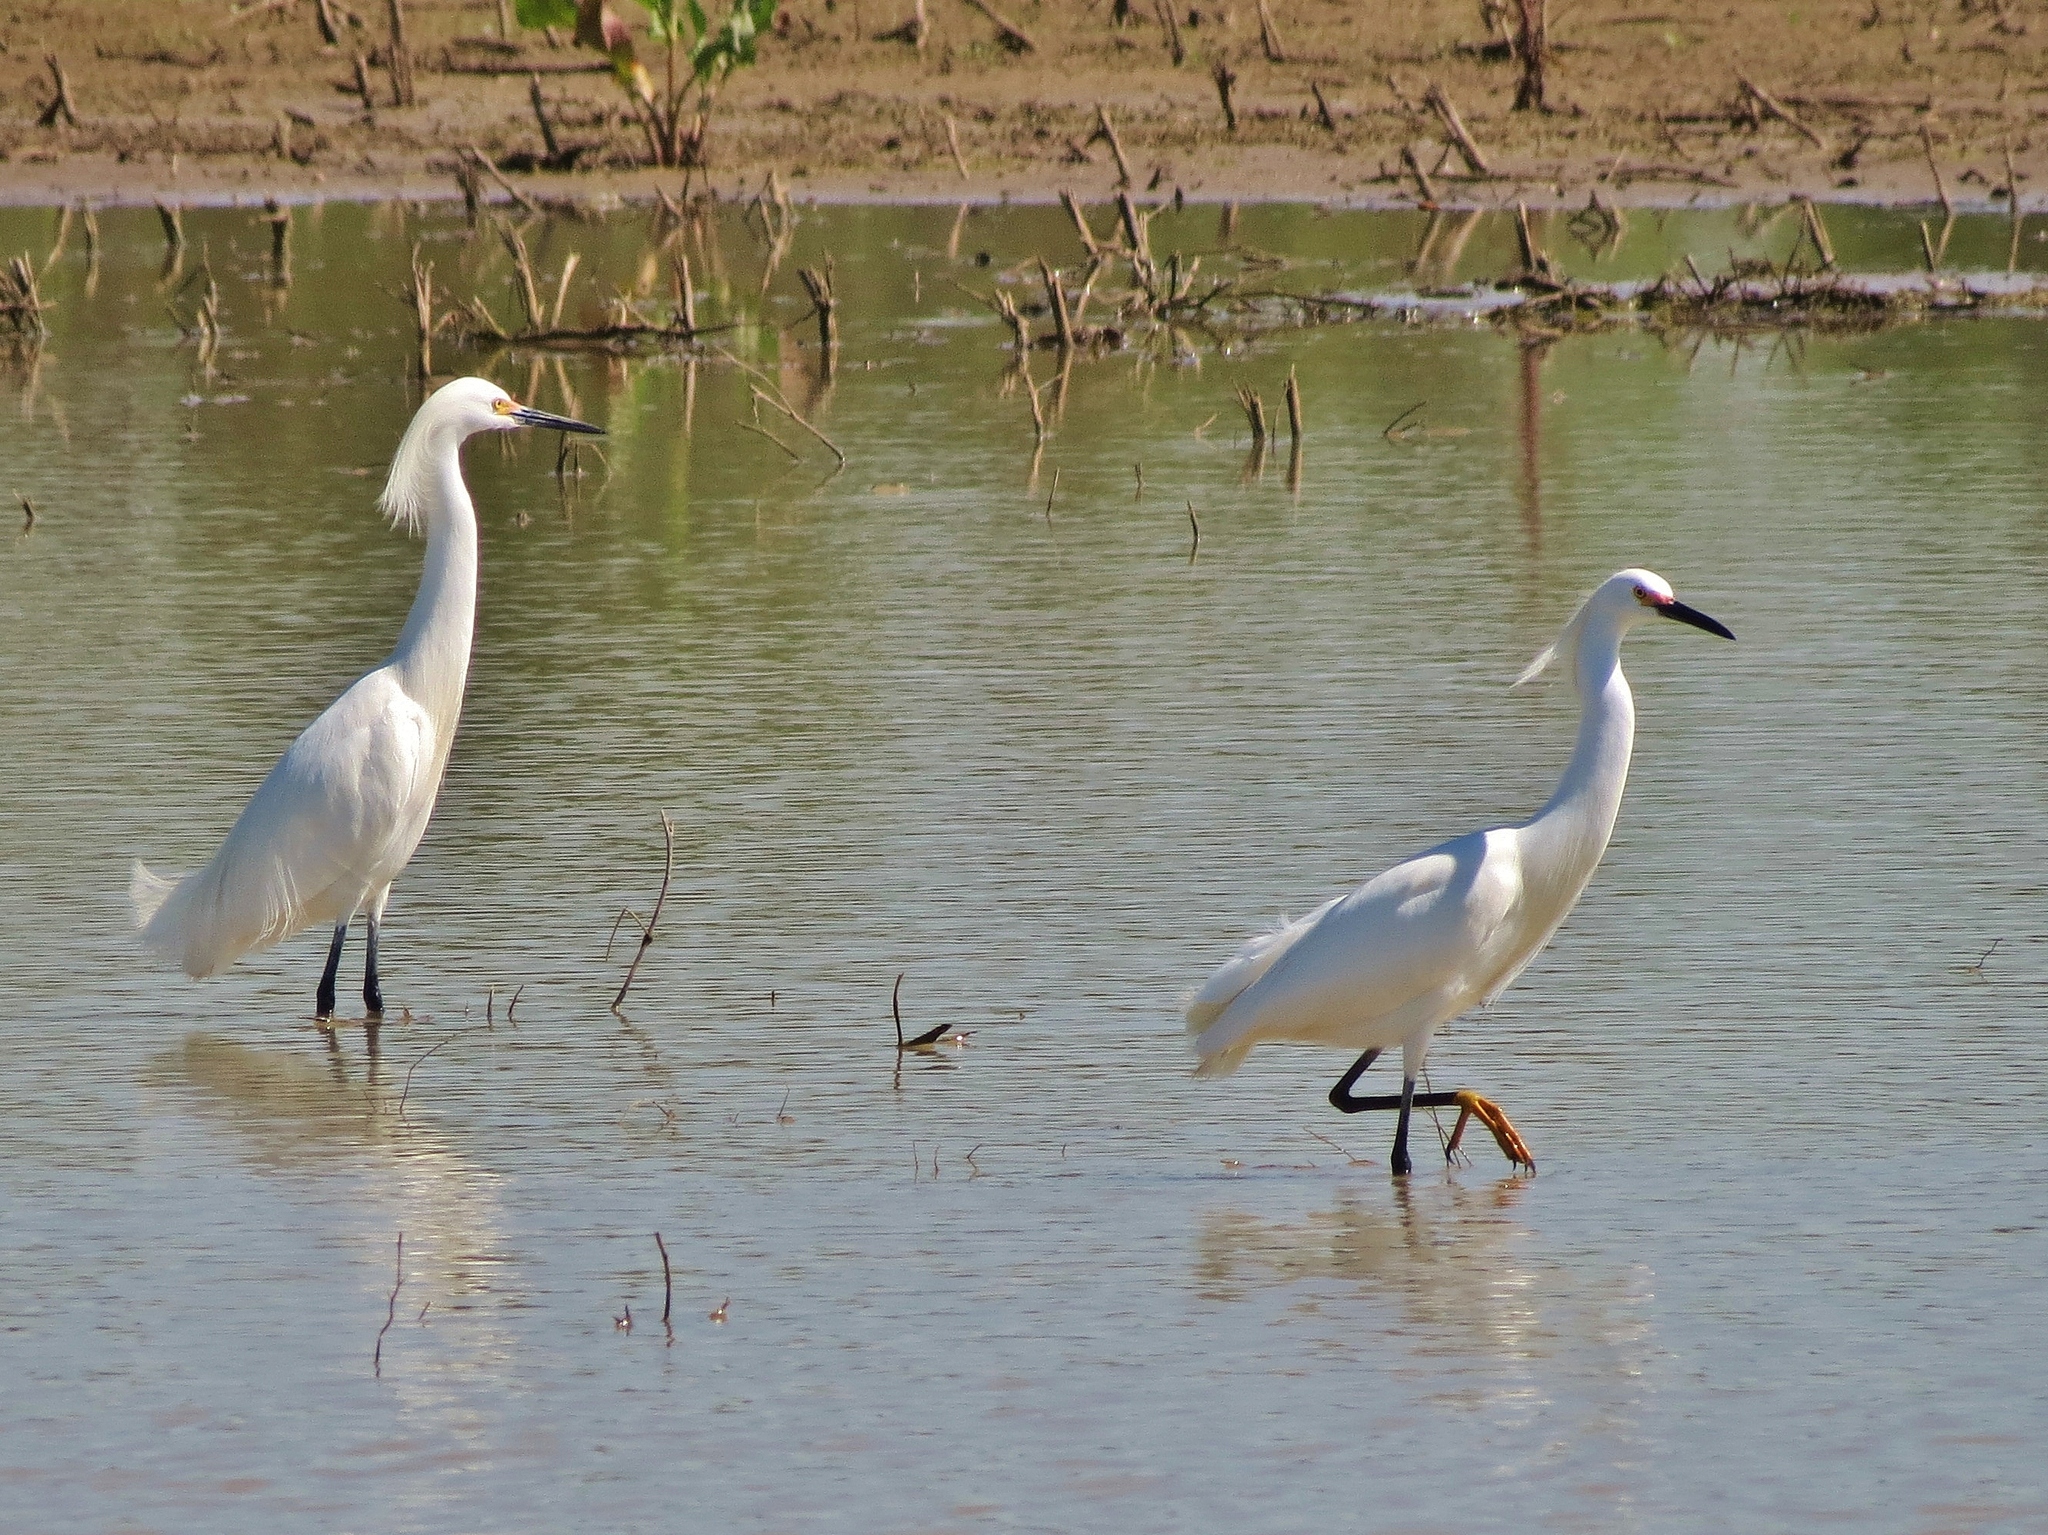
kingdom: Animalia
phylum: Chordata
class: Aves
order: Pelecaniformes
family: Ardeidae
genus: Egretta
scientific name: Egretta thula
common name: Snowy egret
